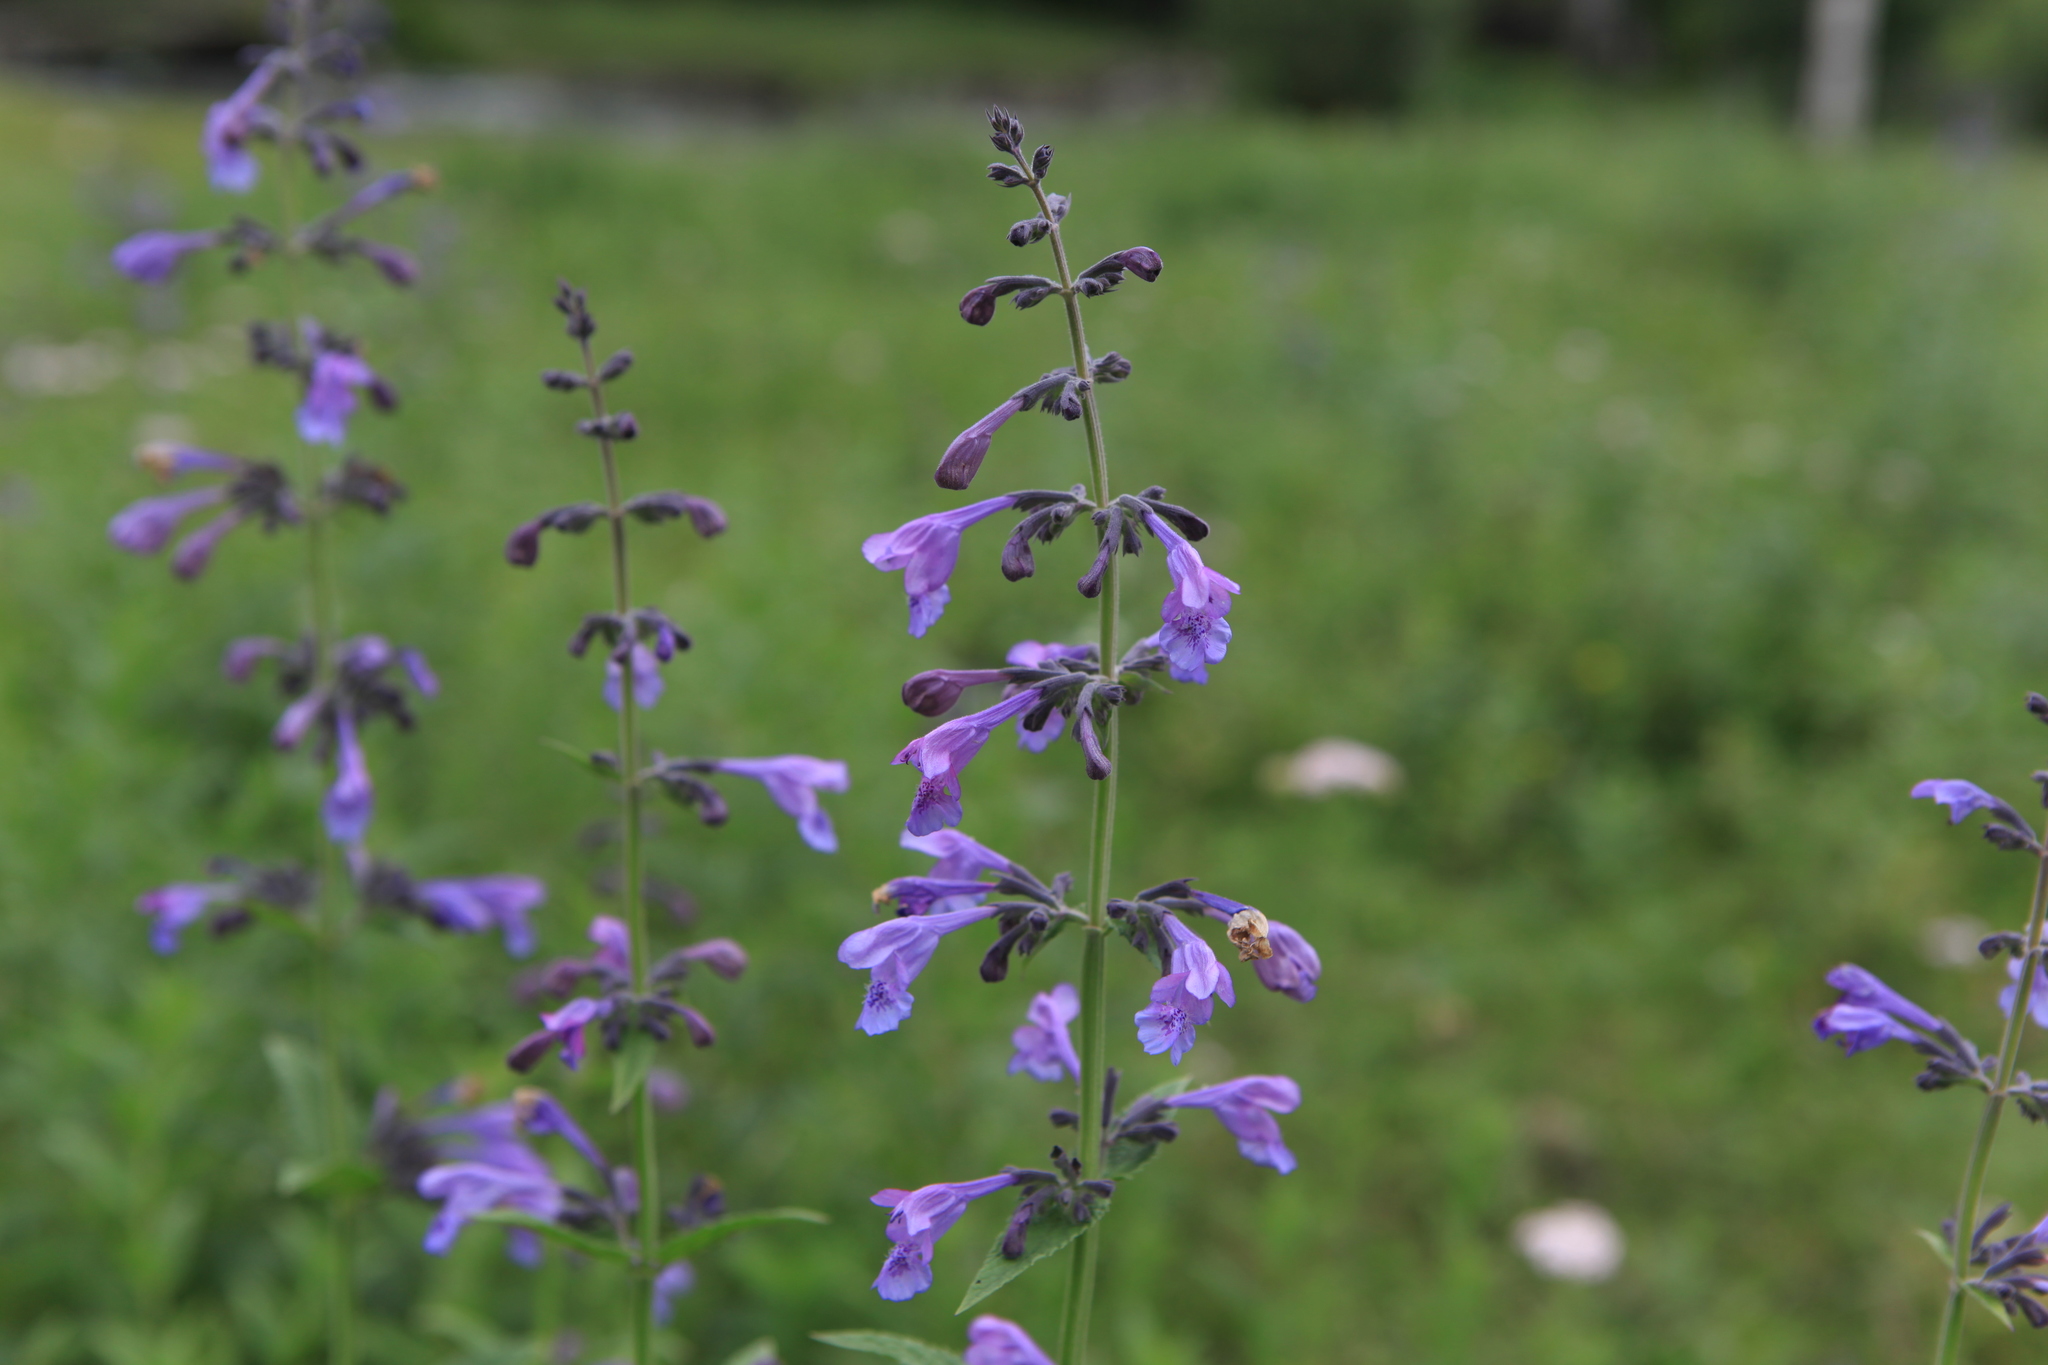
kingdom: Plantae
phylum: Tracheophyta
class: Magnoliopsida
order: Lamiales
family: Lamiaceae
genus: Nepeta
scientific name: Nepeta sibirica
